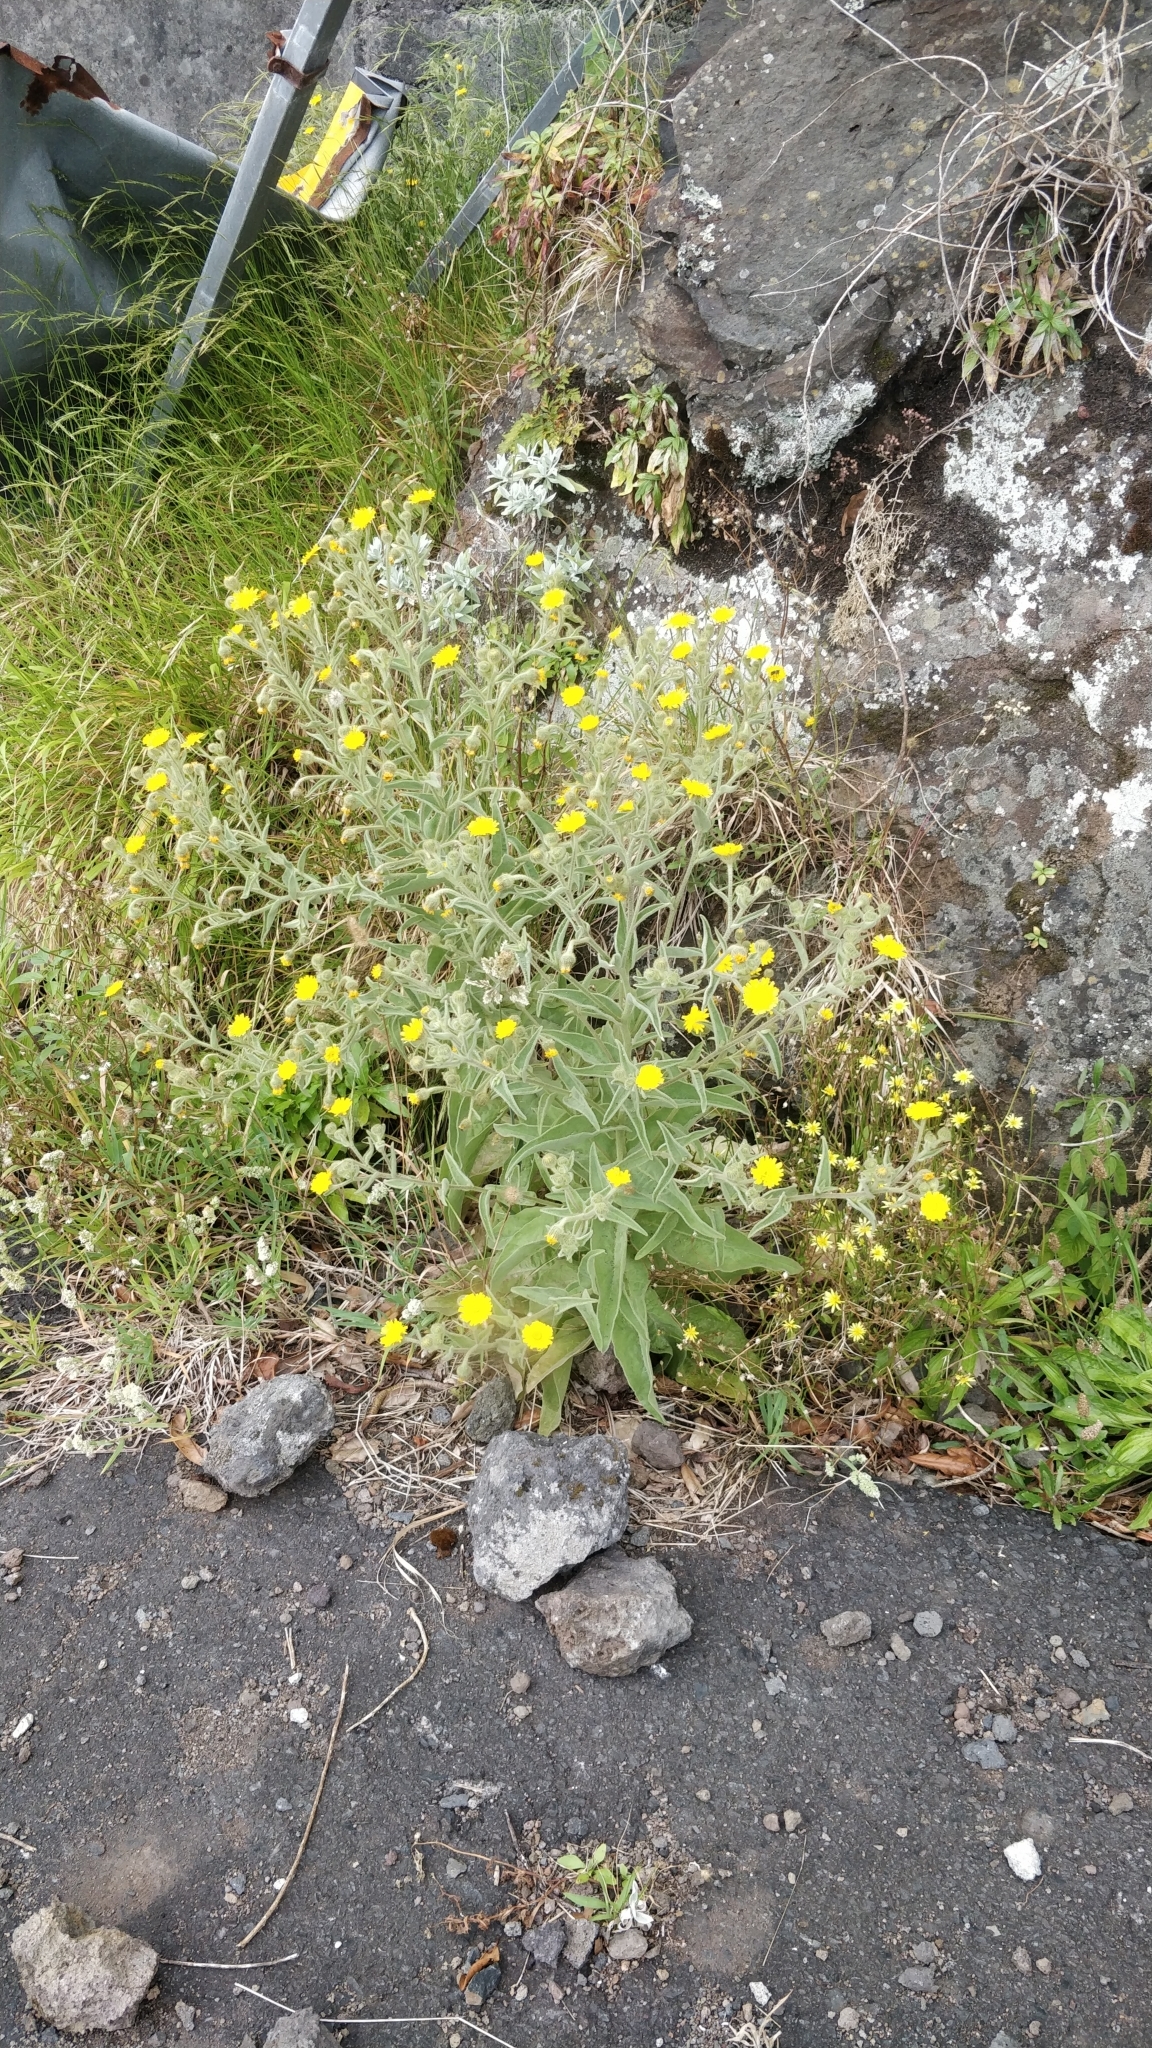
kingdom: Plantae
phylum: Tracheophyta
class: Magnoliopsida
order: Asterales
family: Asteraceae
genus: Andryala
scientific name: Andryala glandulosa
